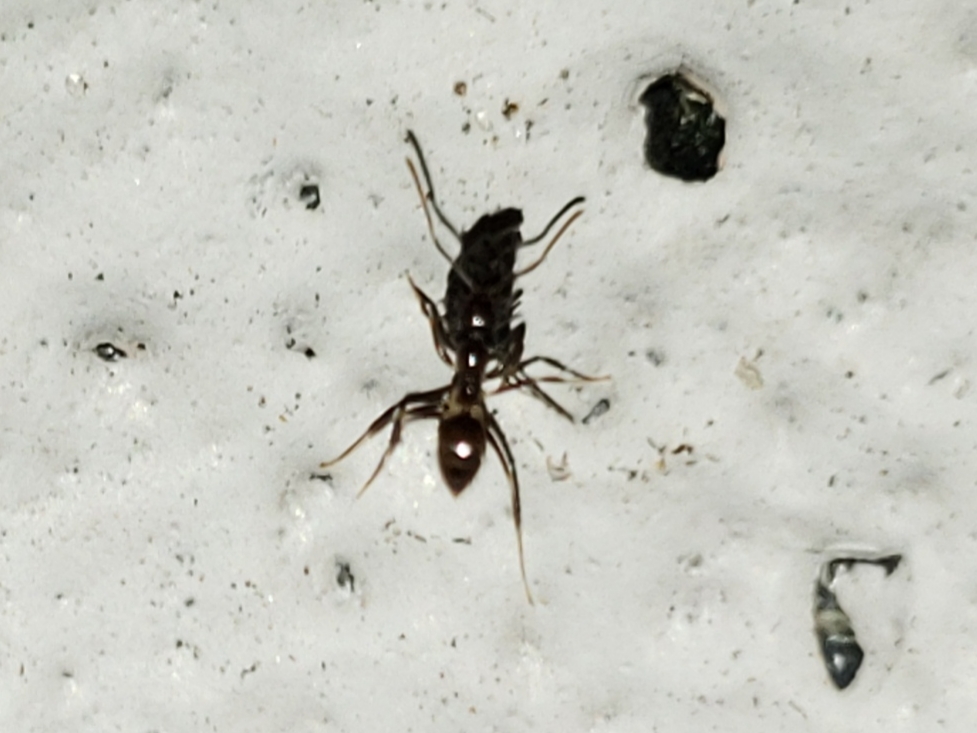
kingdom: Animalia
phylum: Arthropoda
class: Insecta
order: Hymenoptera
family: Formicidae
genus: Nylanderia
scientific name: Nylanderia steinheili
